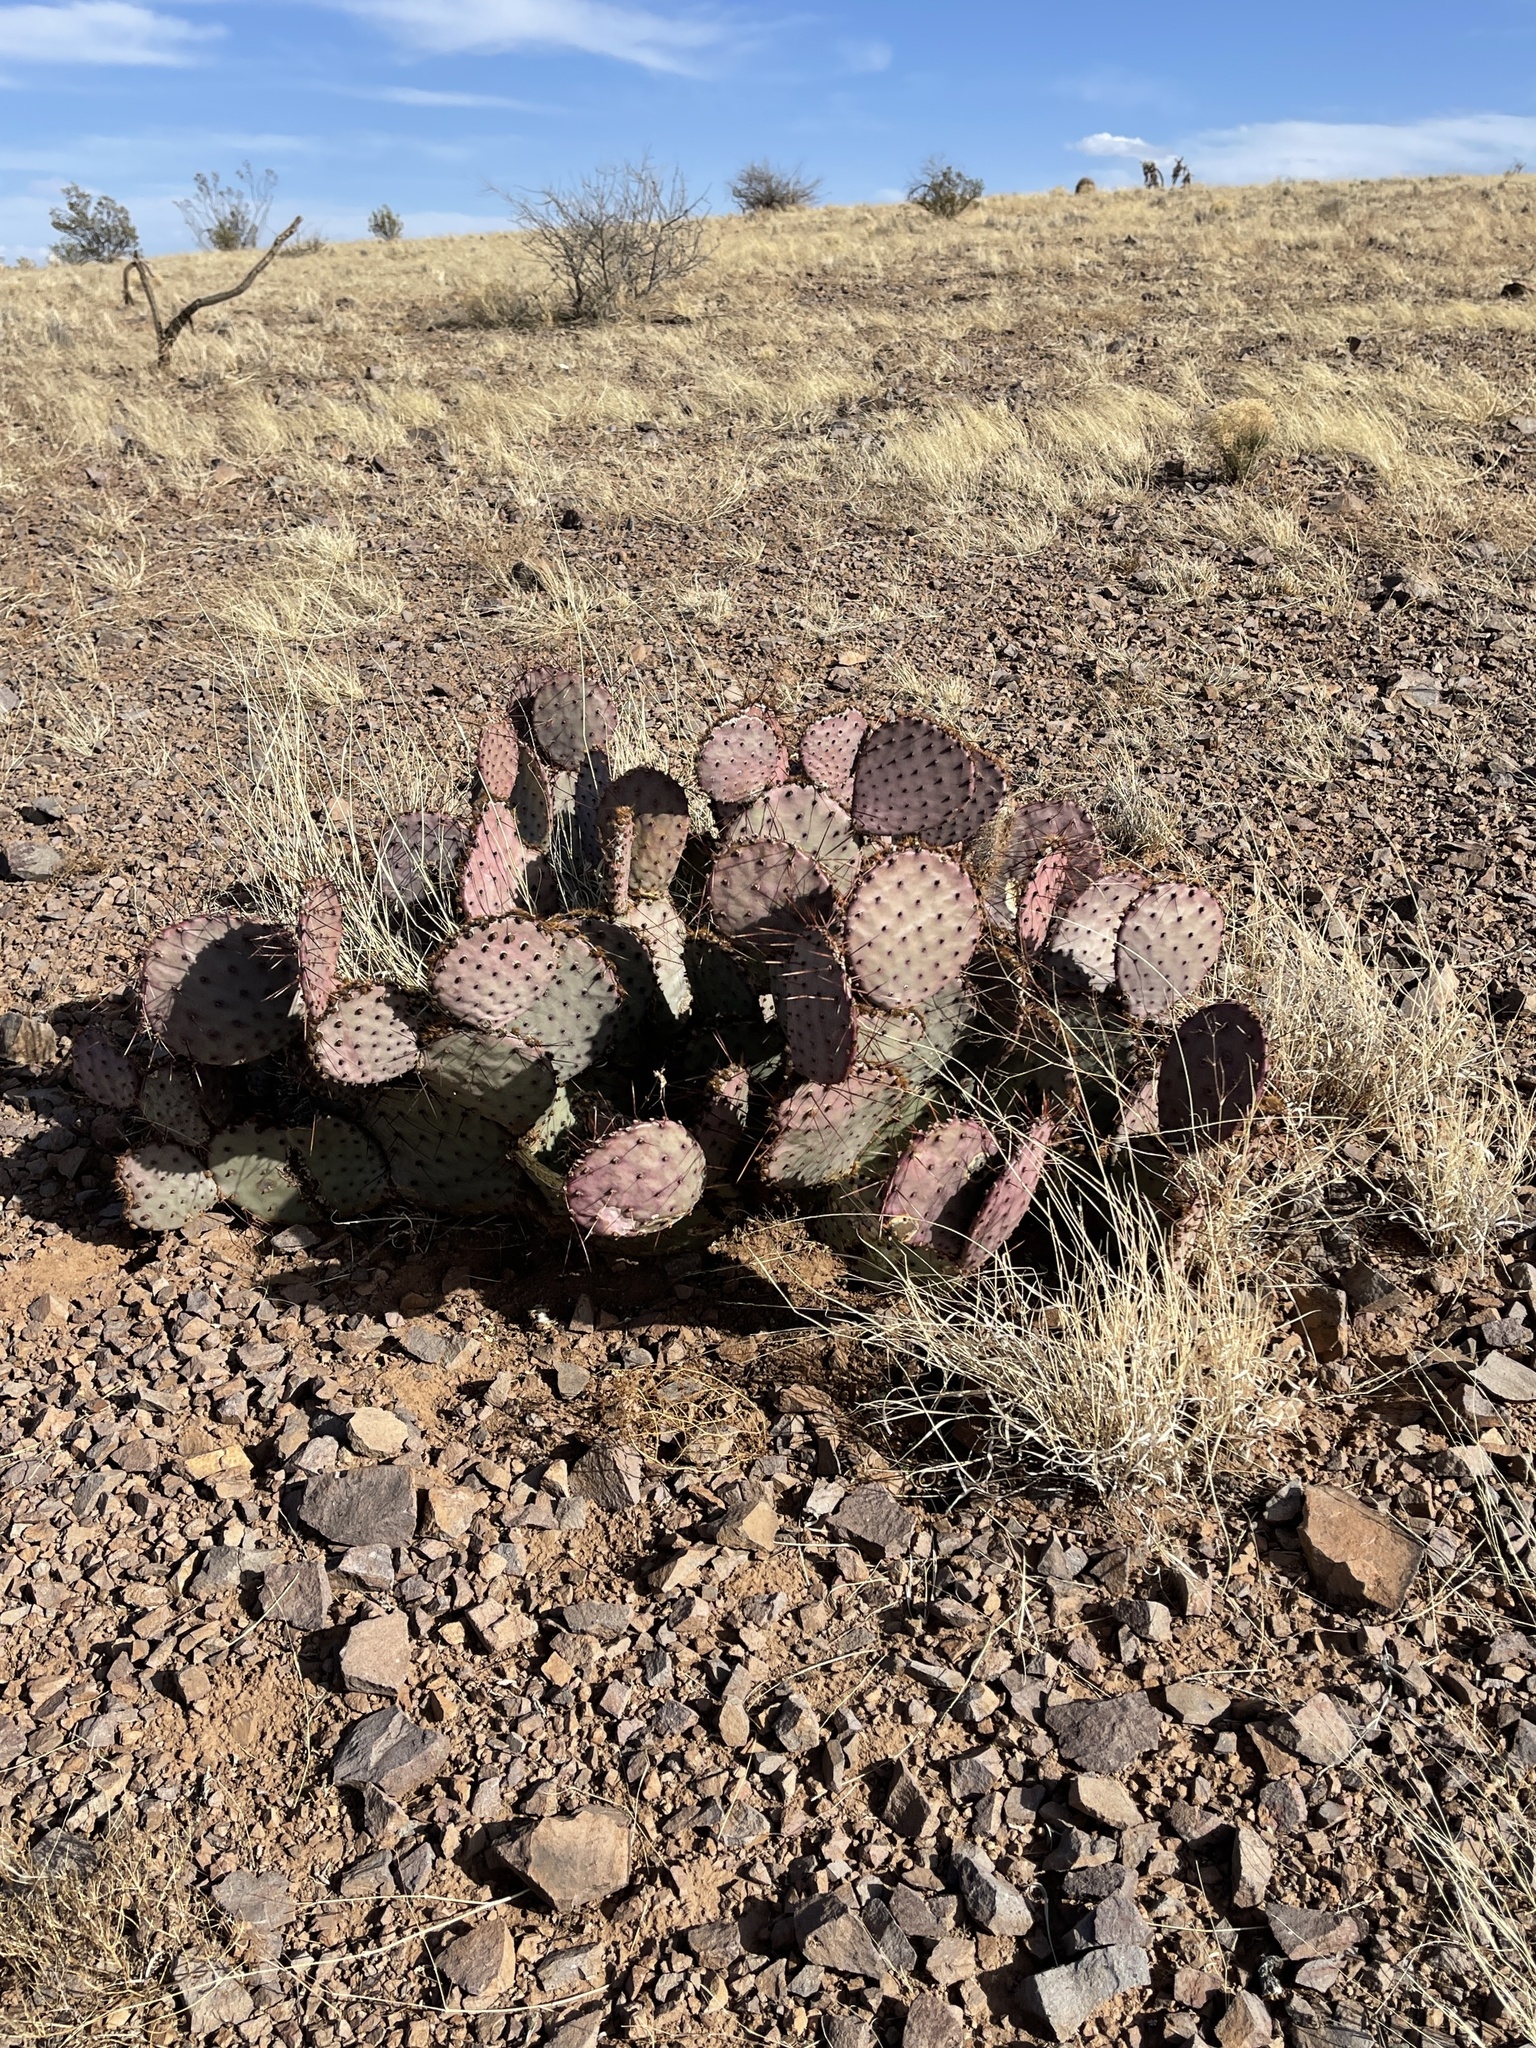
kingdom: Plantae
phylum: Tracheophyta
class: Magnoliopsida
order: Caryophyllales
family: Cactaceae
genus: Opuntia
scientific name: Opuntia macrocentra
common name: Purple prickly-pear
